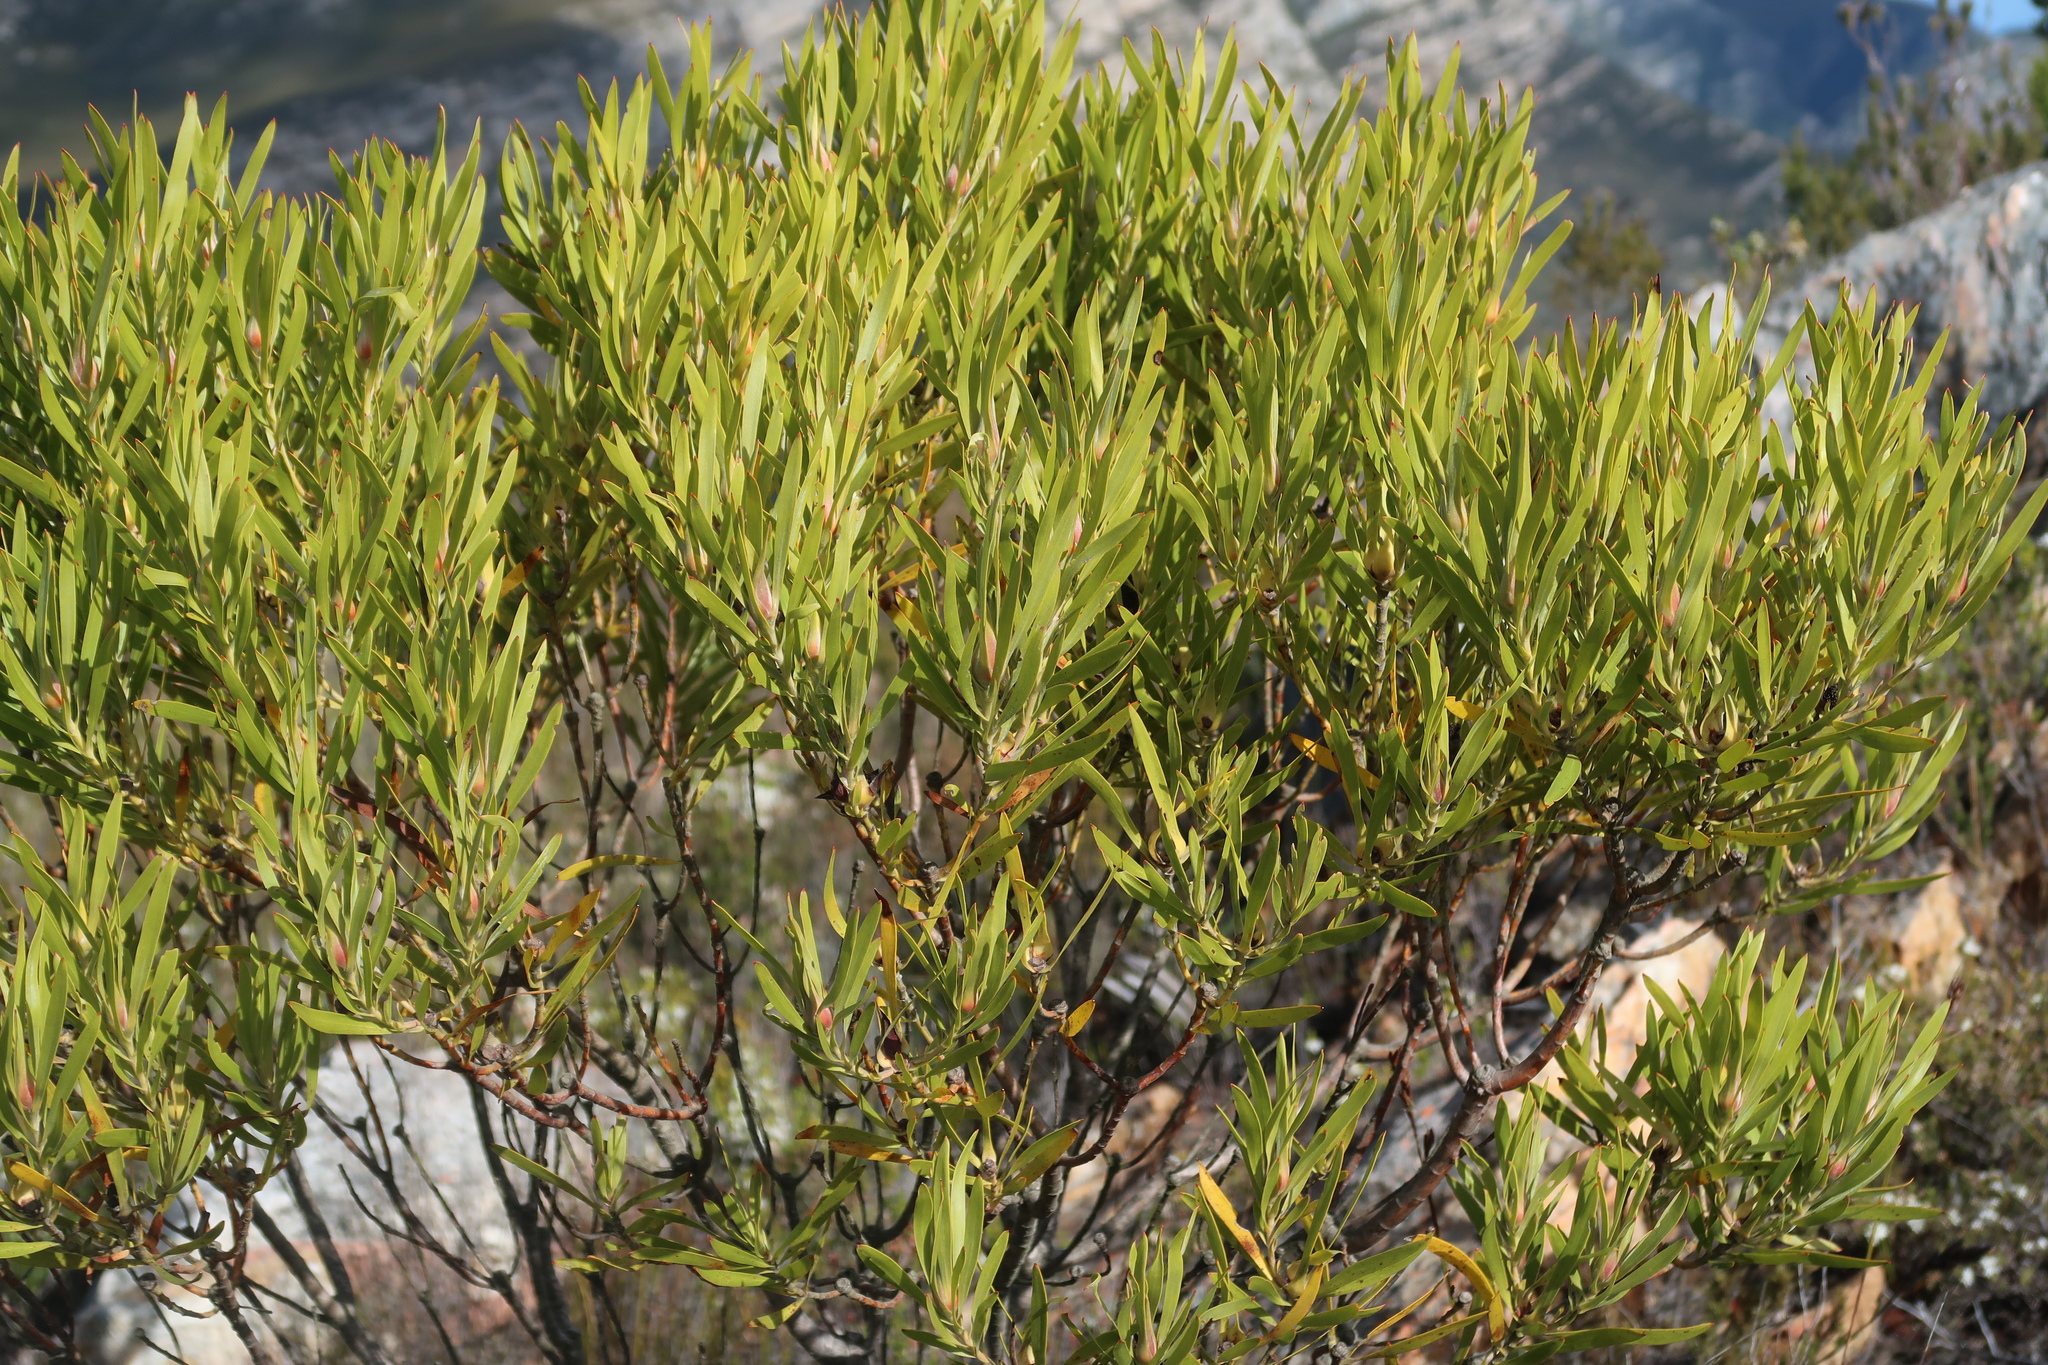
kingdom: Plantae
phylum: Tracheophyta
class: Magnoliopsida
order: Proteales
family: Proteaceae
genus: Leucadendron
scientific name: Leucadendron eucalyptifolium
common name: Gum-leaved conebush
